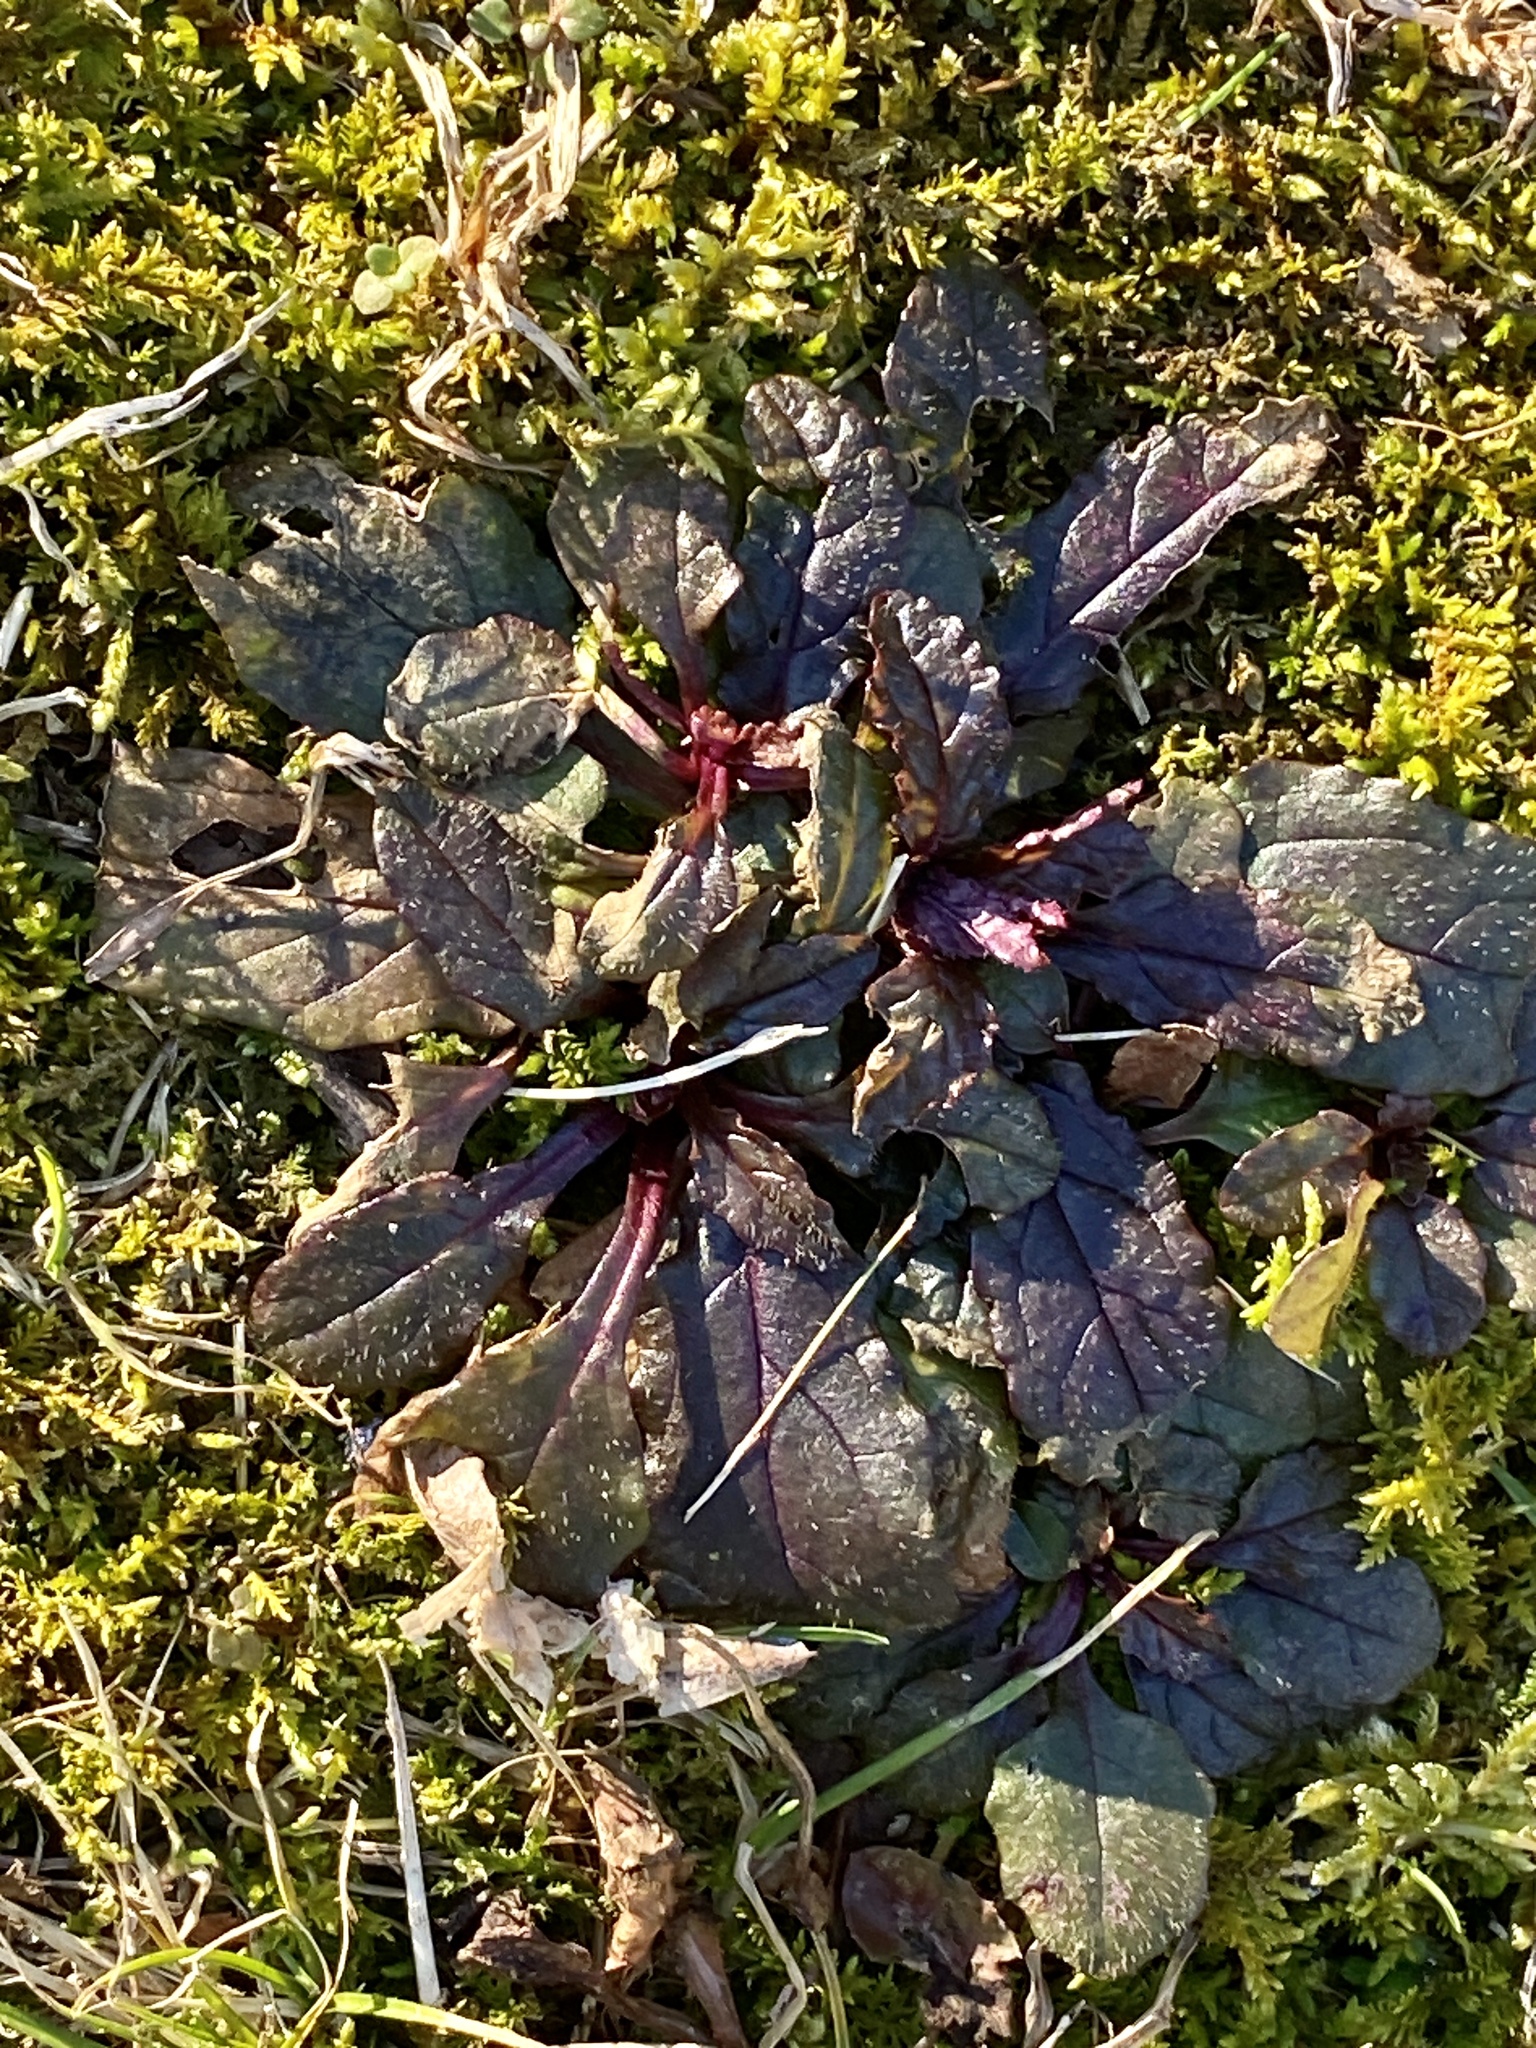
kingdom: Plantae
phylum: Tracheophyta
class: Magnoliopsida
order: Lamiales
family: Lamiaceae
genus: Ajuga
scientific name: Ajuga reptans
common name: Bugle
